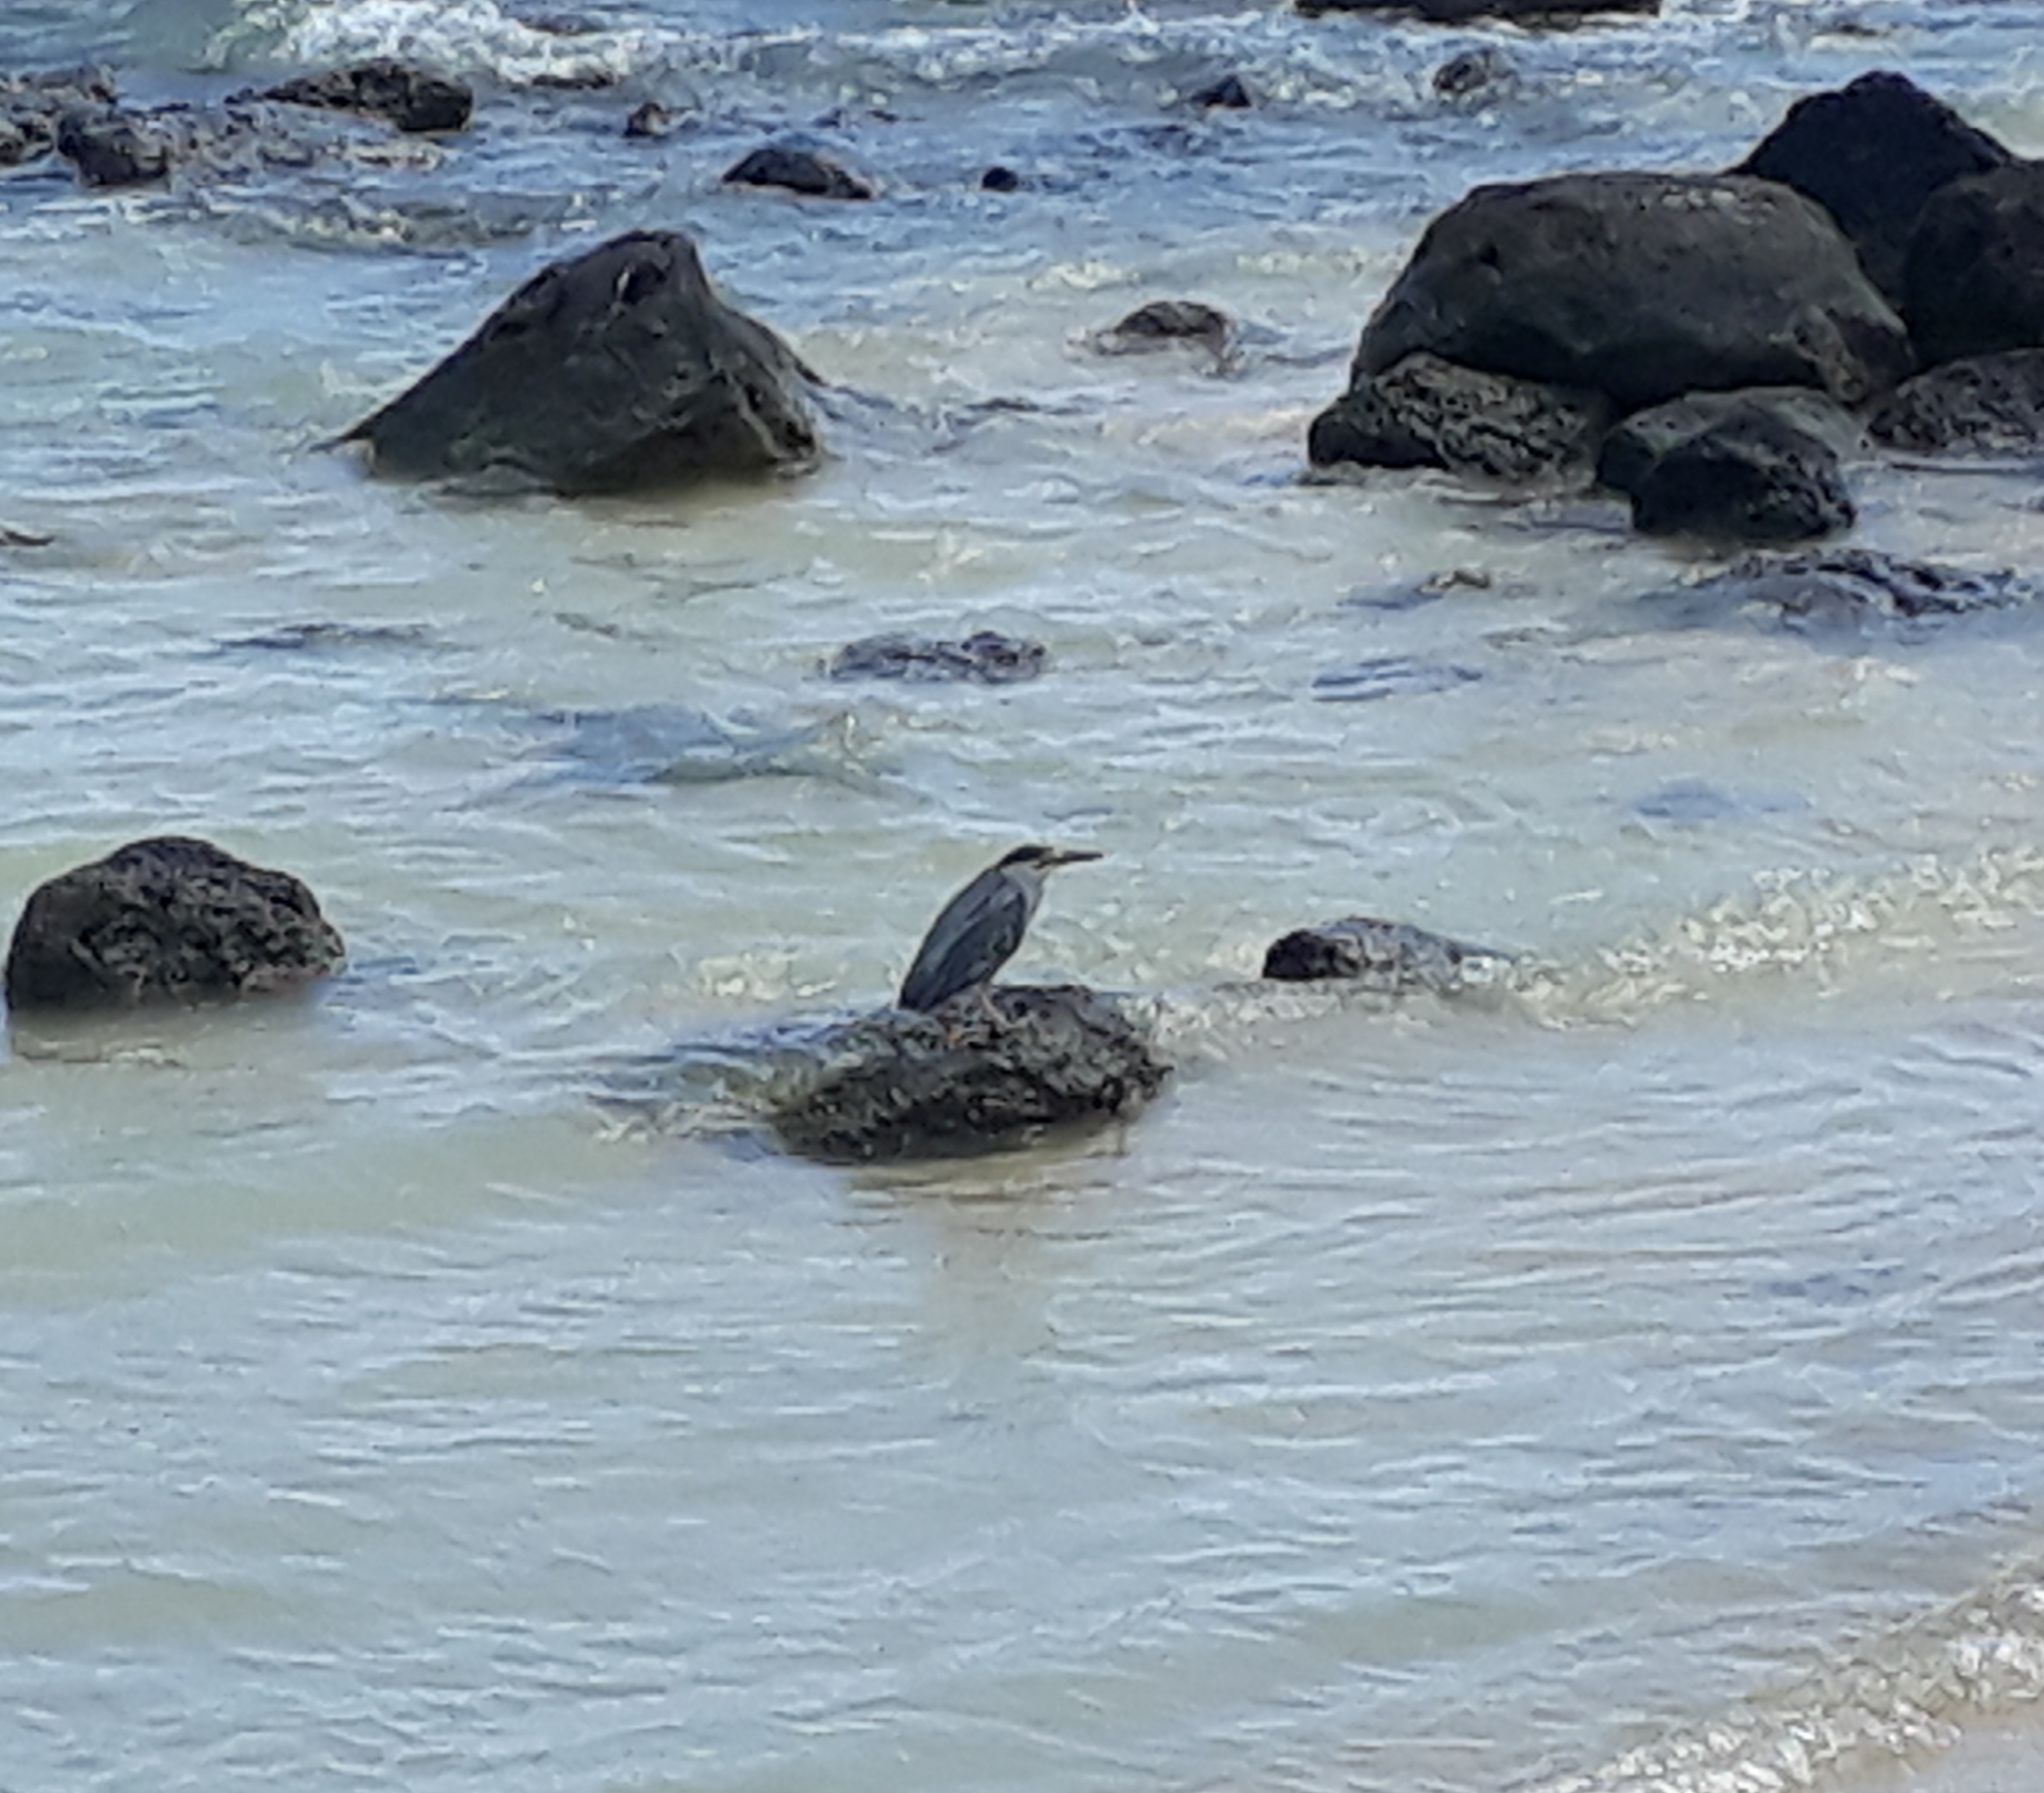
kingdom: Animalia
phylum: Chordata
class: Aves
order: Pelecaniformes
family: Ardeidae
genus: Butorides
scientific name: Butorides striata
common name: Striated heron
